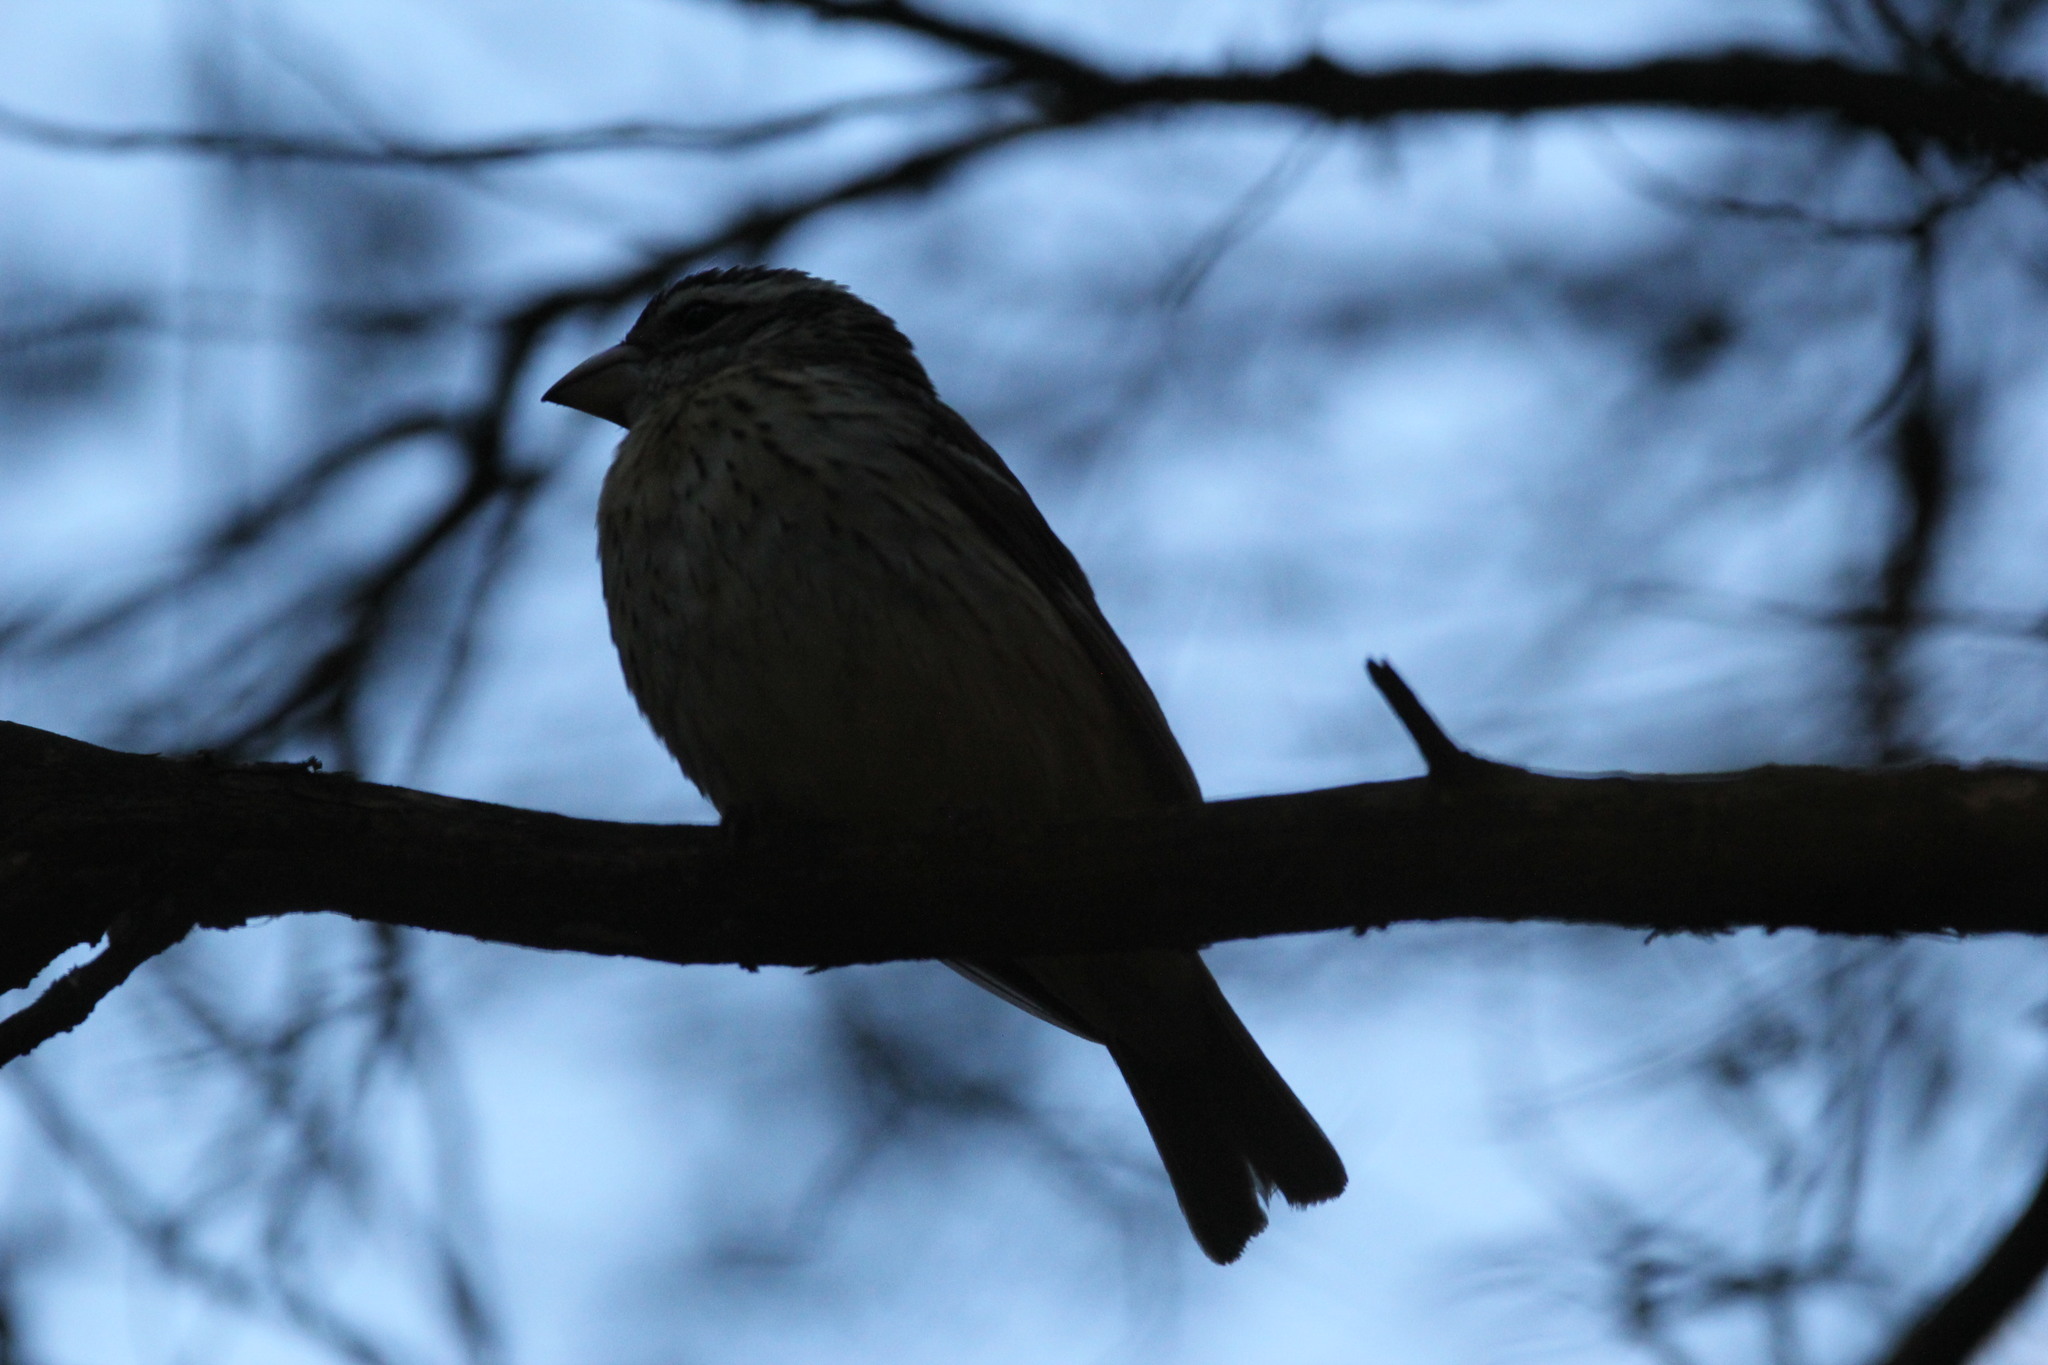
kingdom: Animalia
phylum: Chordata
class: Aves
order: Passeriformes
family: Cardinalidae
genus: Pheucticus
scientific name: Pheucticus ludovicianus
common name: Rose-breasted grosbeak
